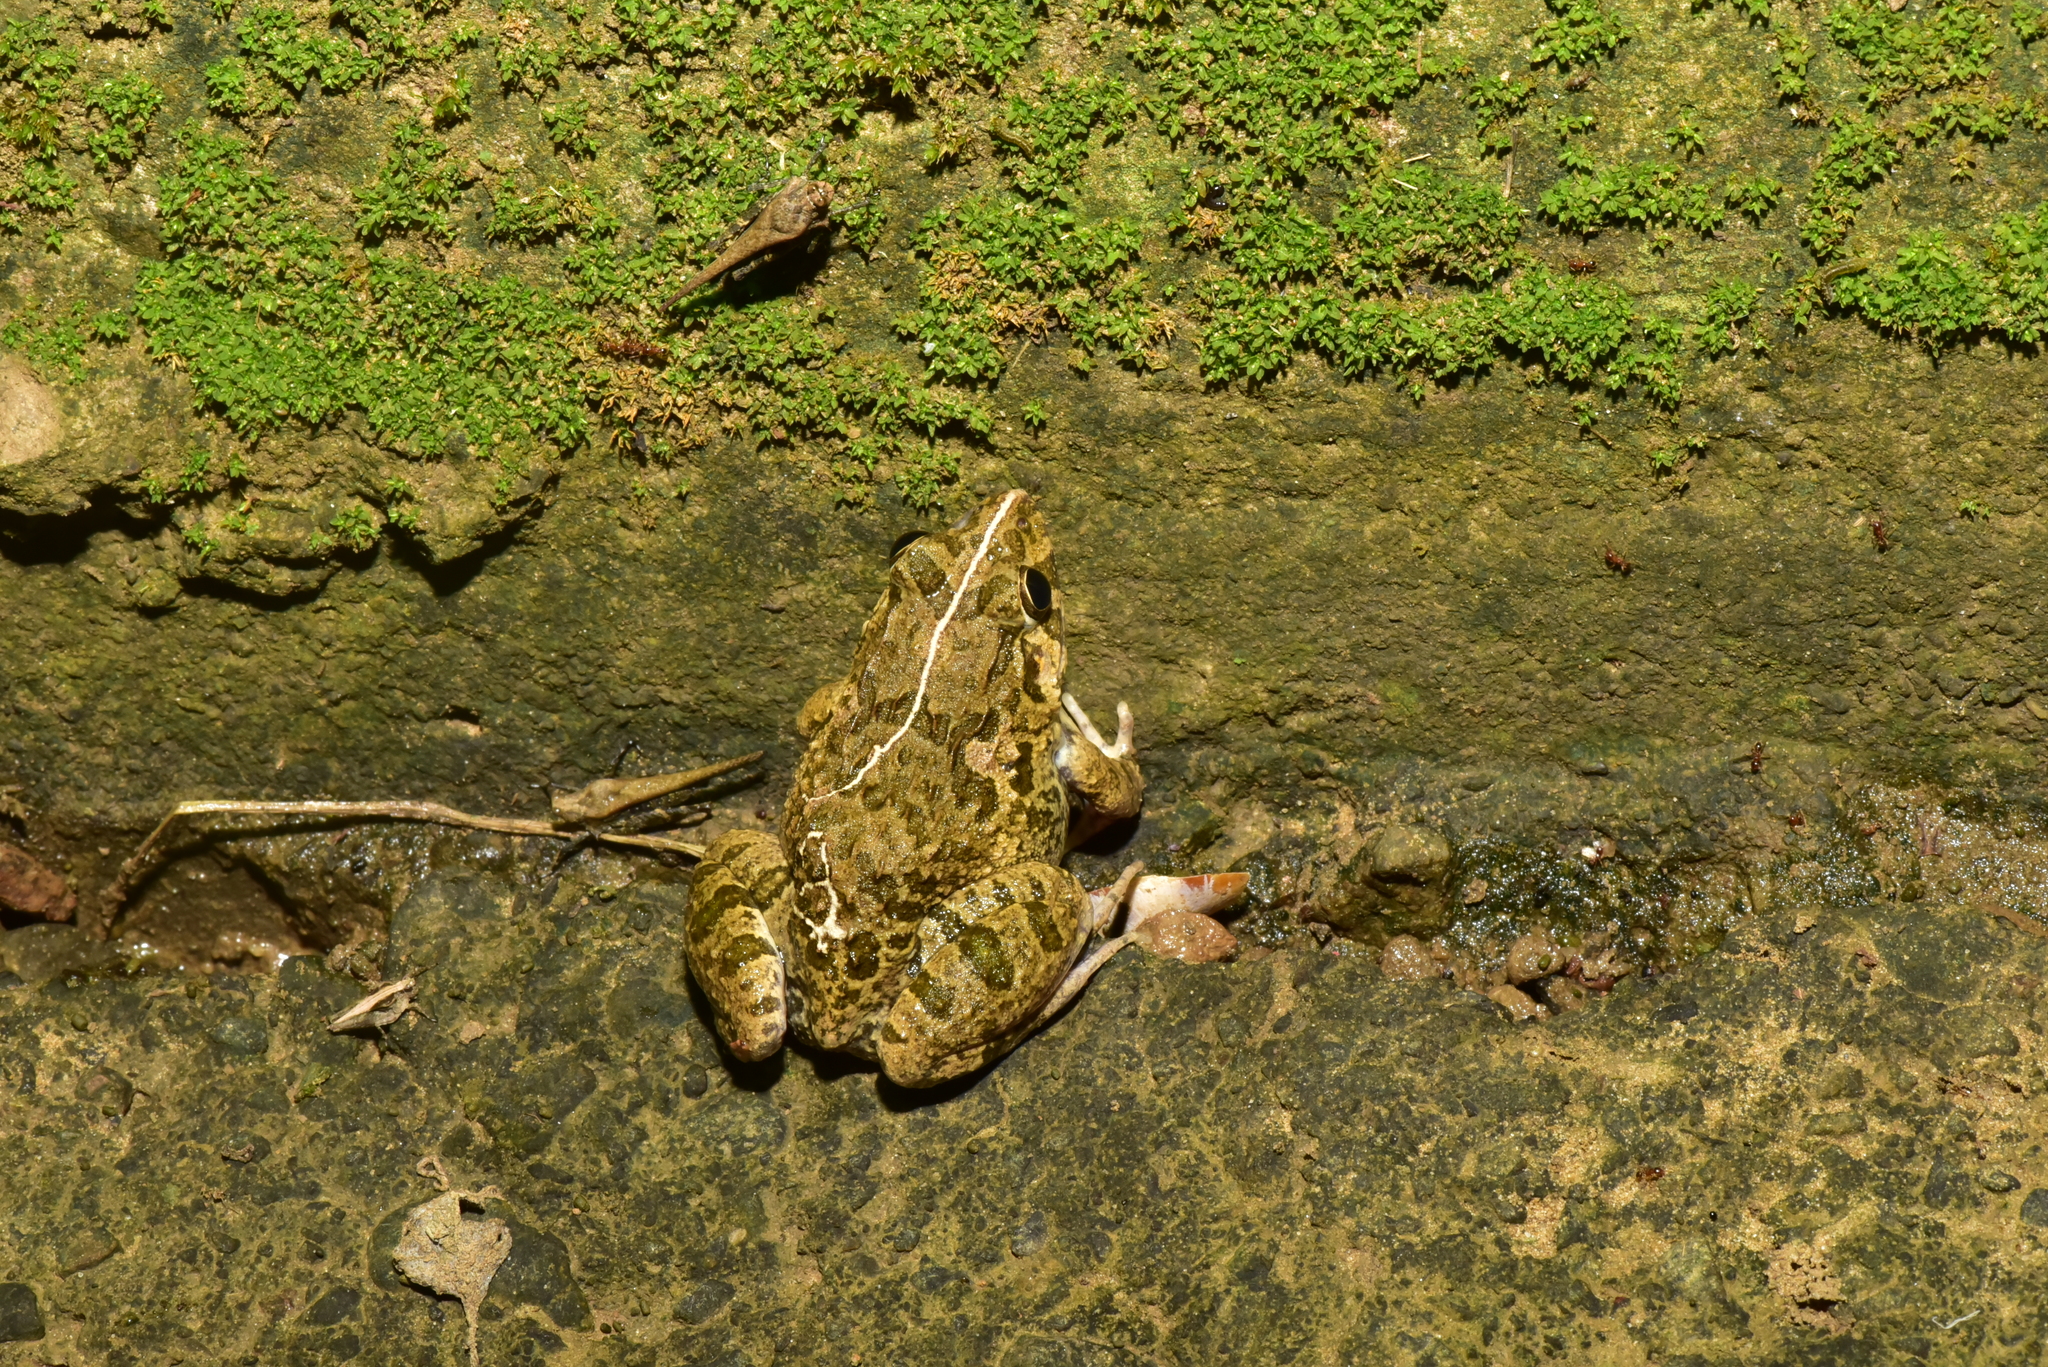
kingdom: Animalia
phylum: Chordata
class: Amphibia
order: Anura
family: Dicroglossidae
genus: Fejervarya
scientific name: Fejervarya limnocharis
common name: Asian grass frog/common pond frog/field frog/grass frog/indian rice frog
